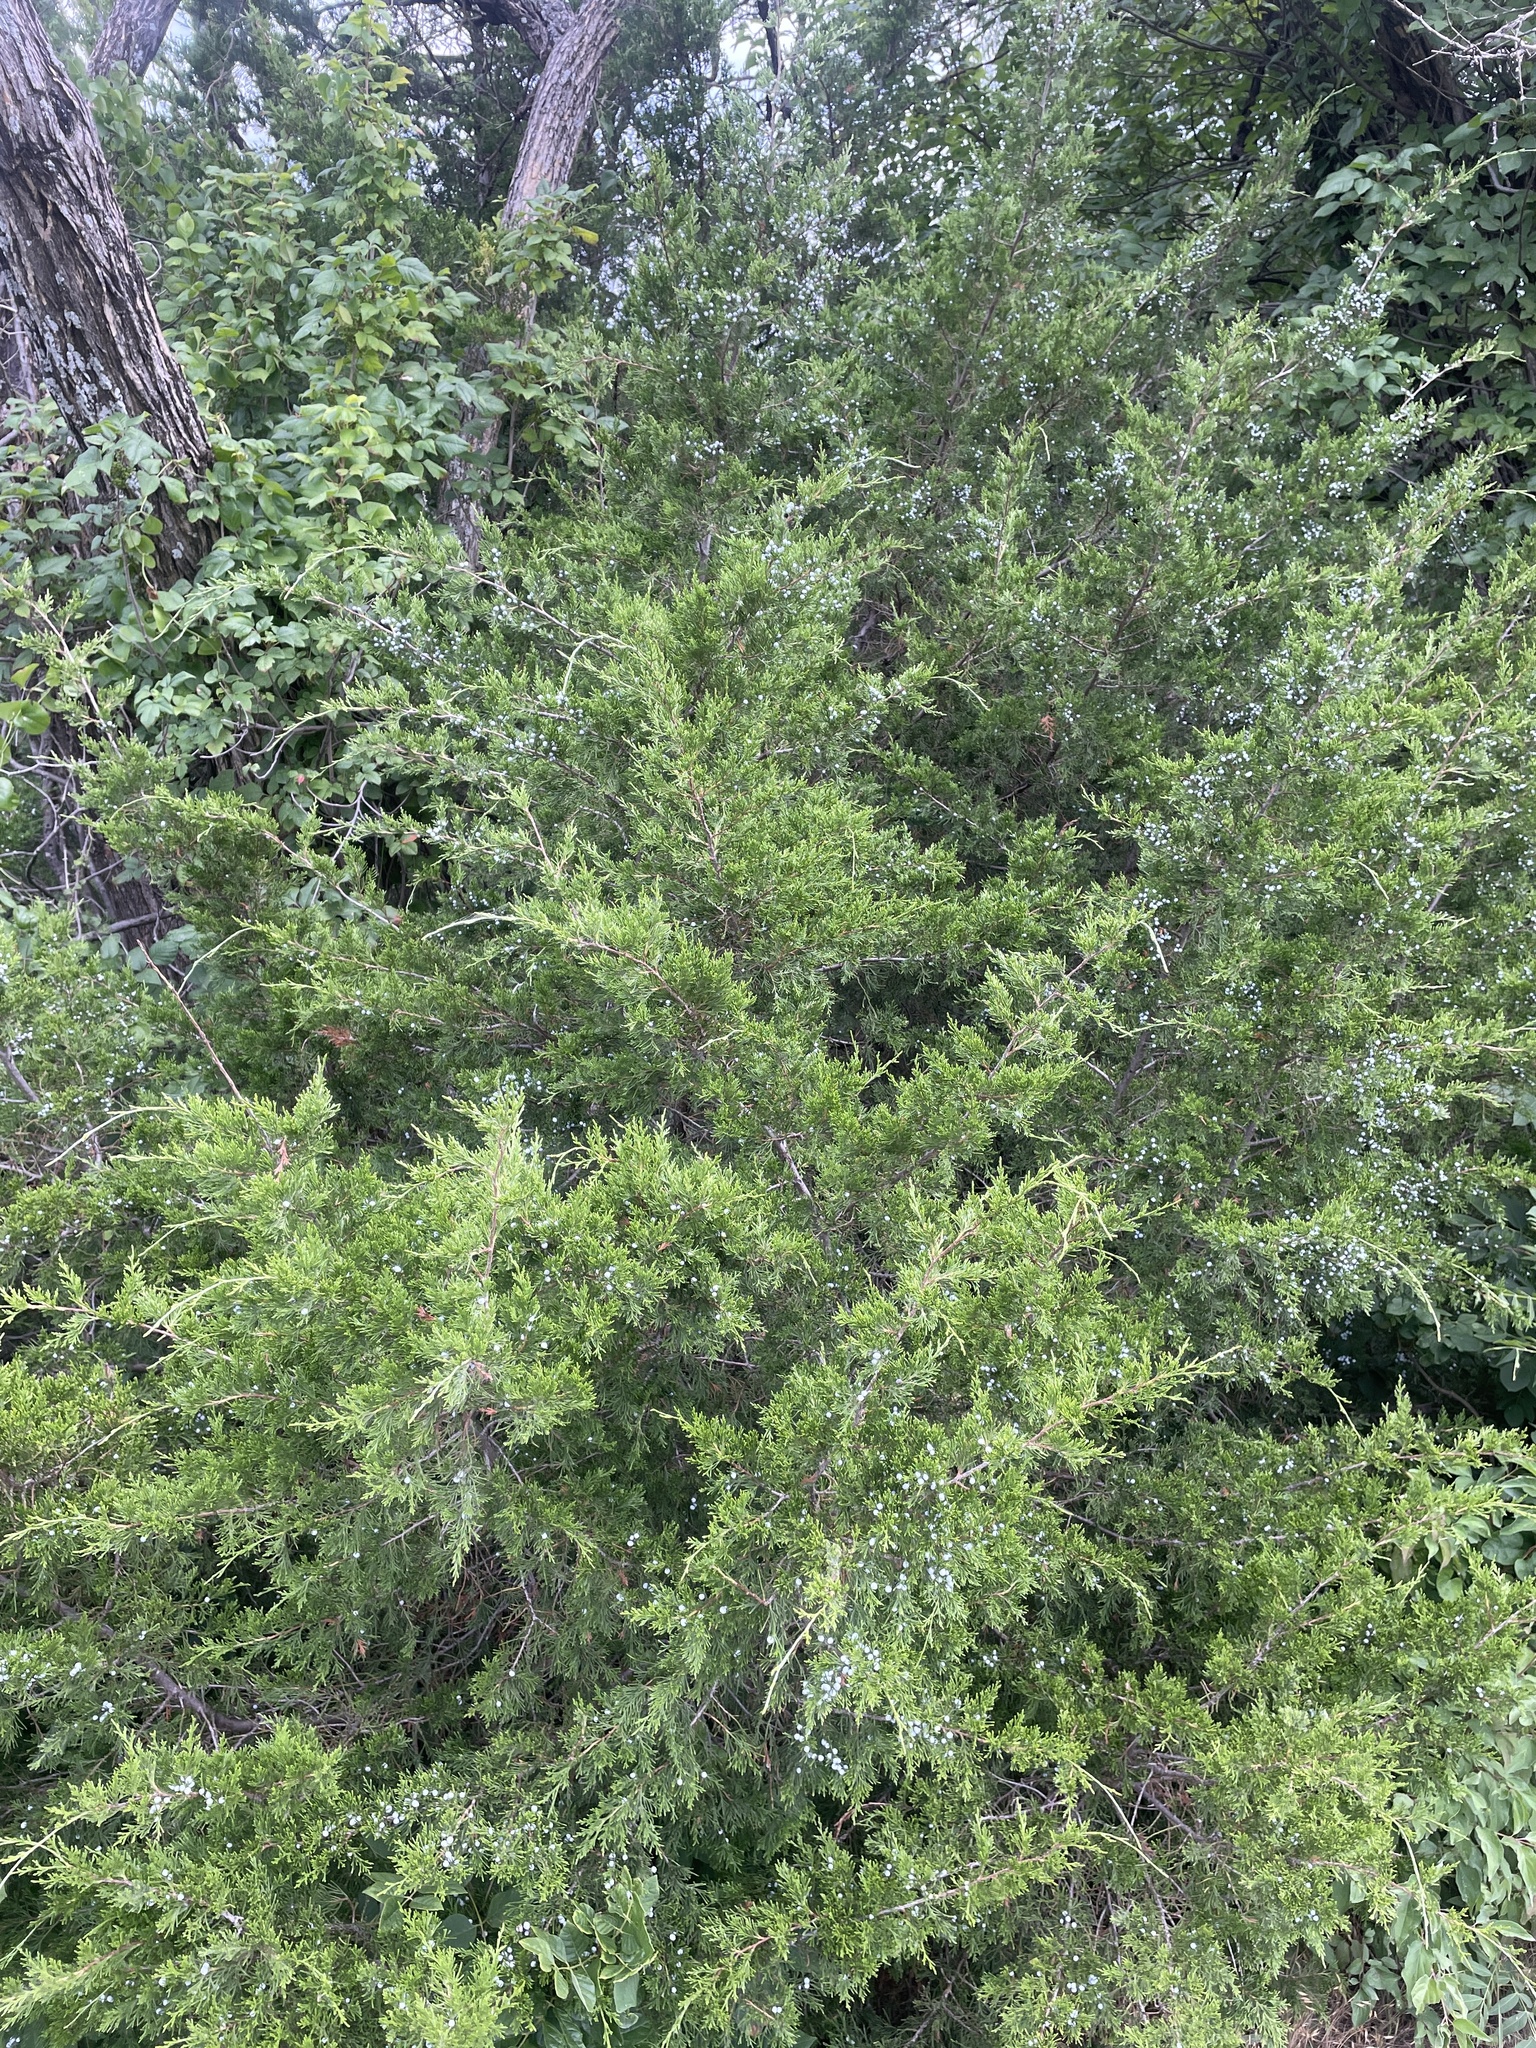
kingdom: Plantae
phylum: Tracheophyta
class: Pinopsida
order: Pinales
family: Cupressaceae
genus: Juniperus
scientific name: Juniperus virginiana
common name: Red juniper
